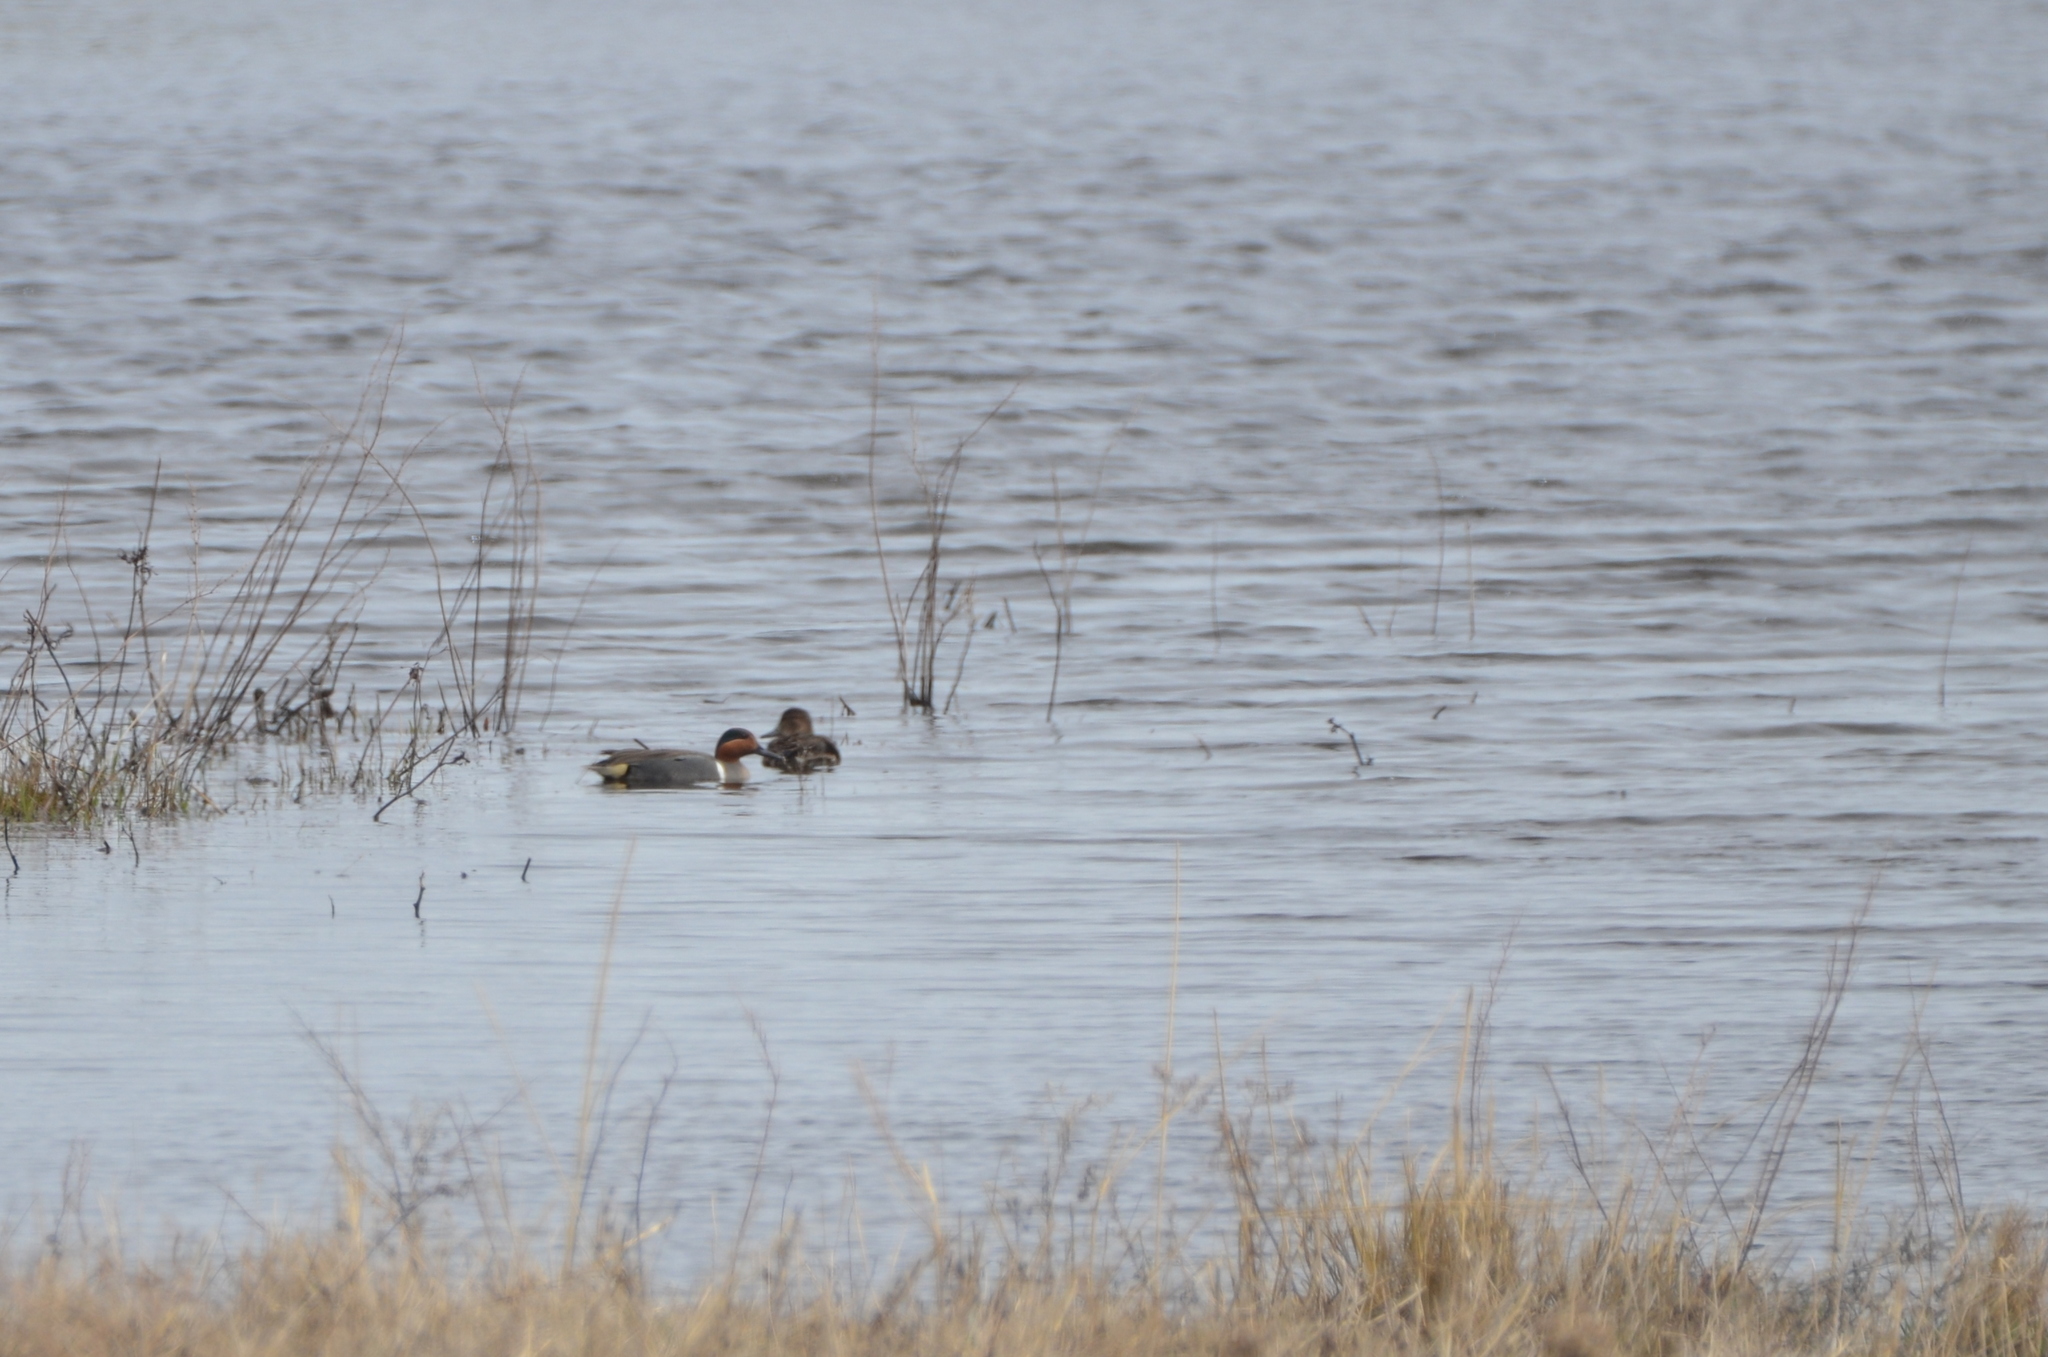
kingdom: Animalia
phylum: Chordata
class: Aves
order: Anseriformes
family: Anatidae
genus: Anas
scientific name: Anas crecca
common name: Eurasian teal
